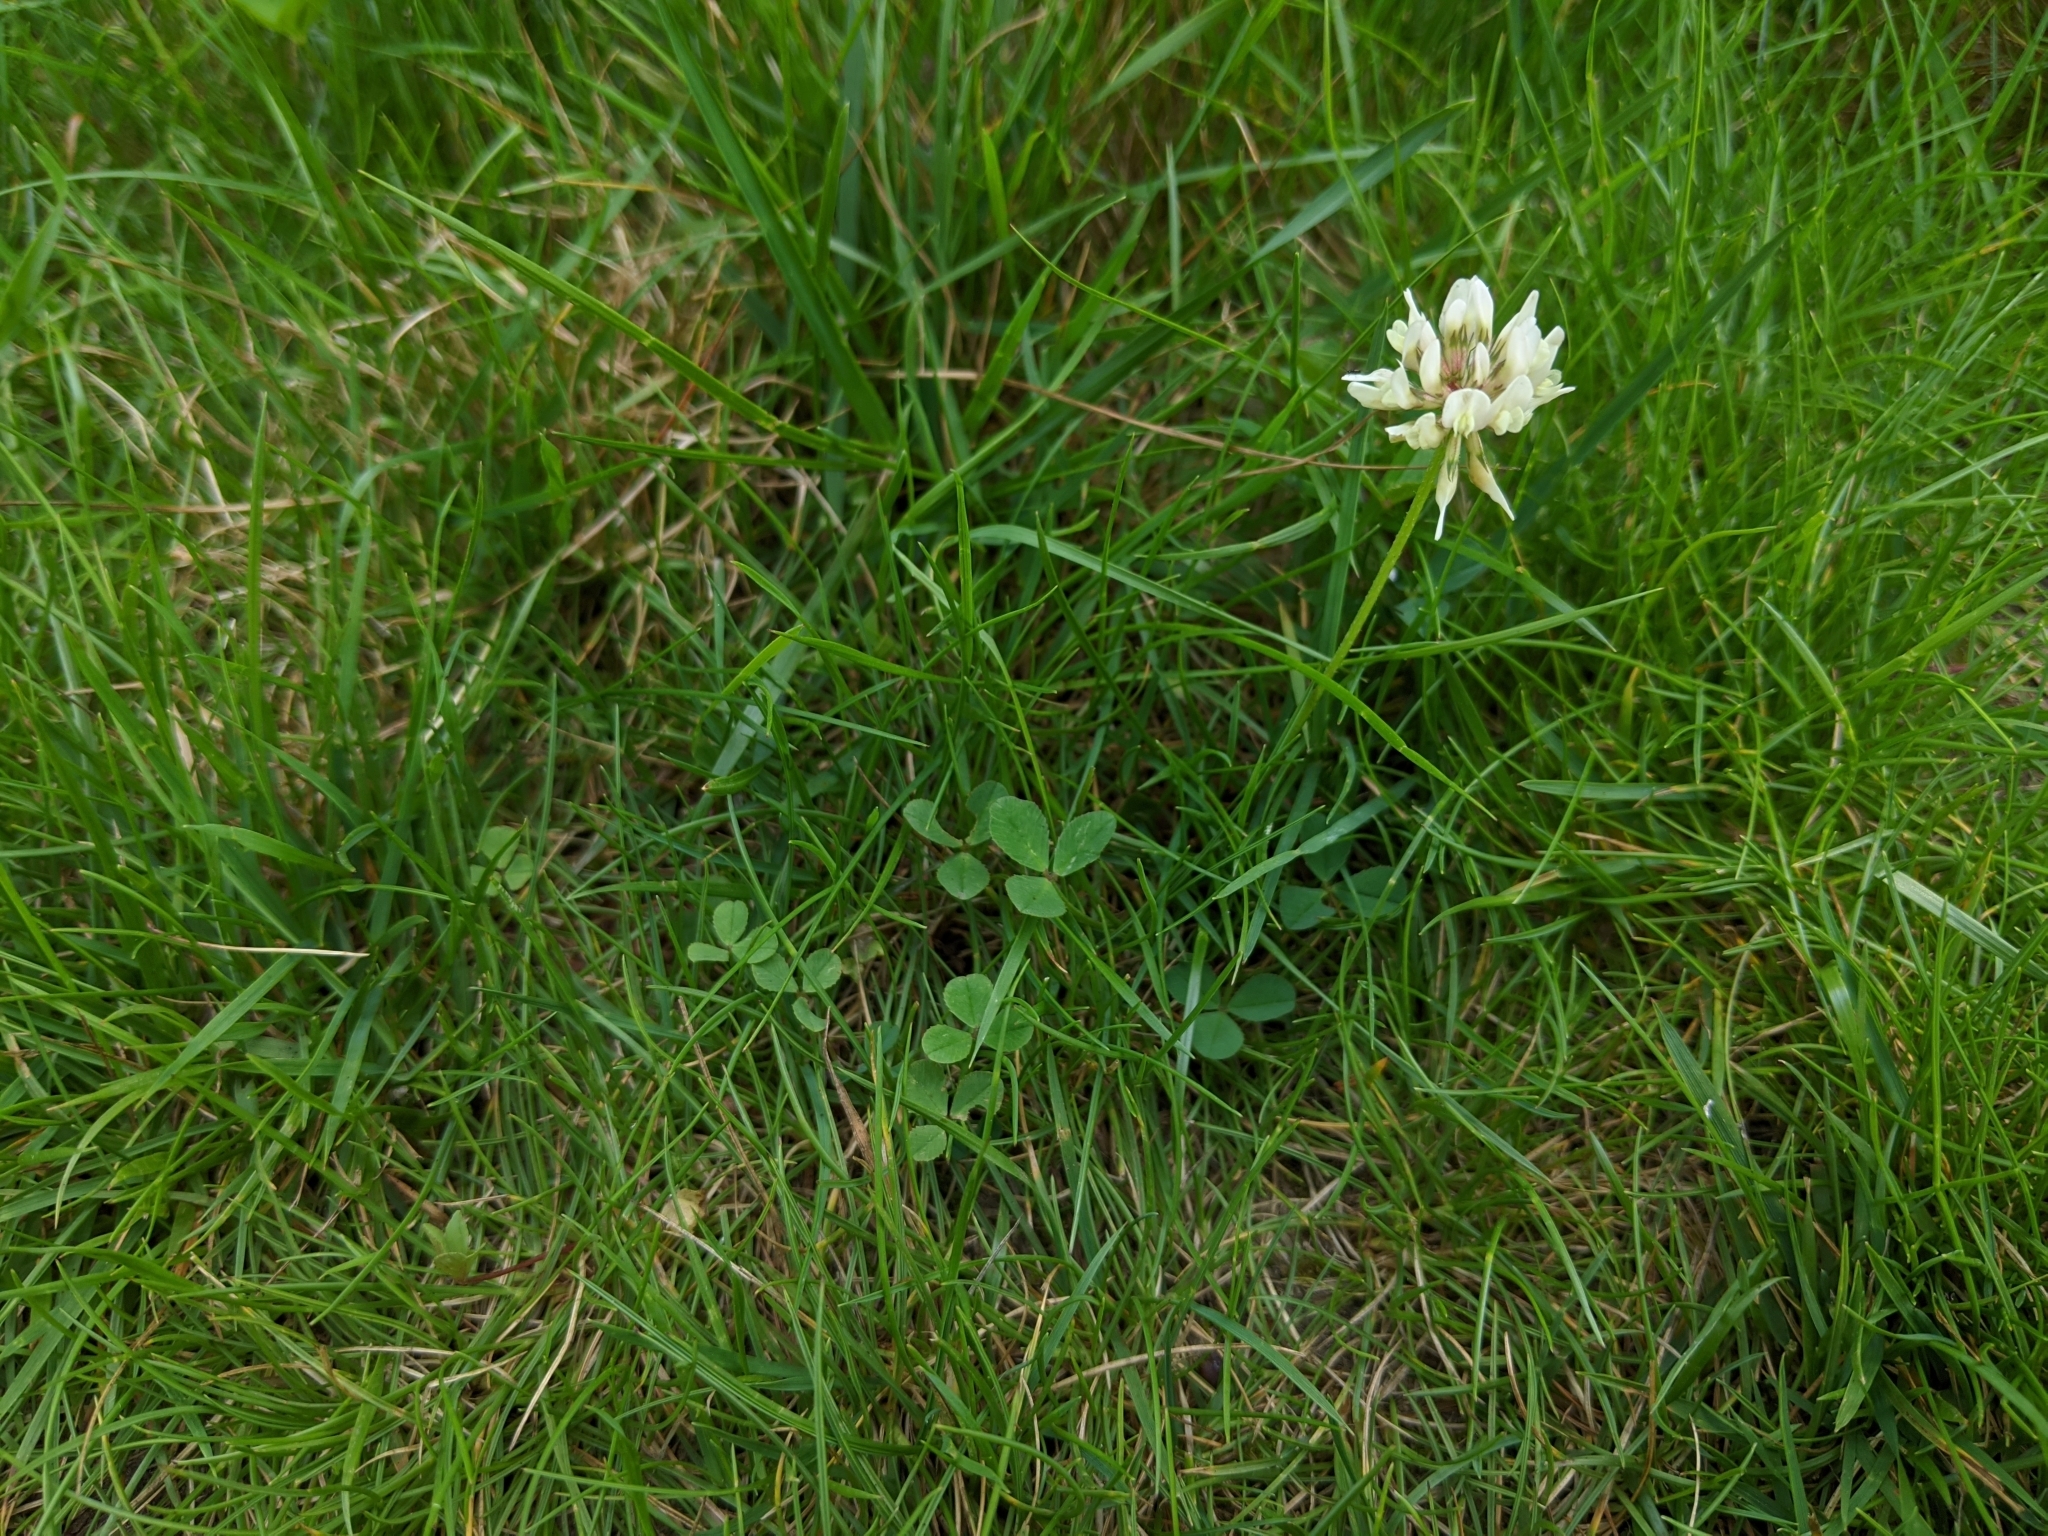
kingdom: Plantae
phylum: Tracheophyta
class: Magnoliopsida
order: Fabales
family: Fabaceae
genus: Trifolium
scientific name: Trifolium repens
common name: White clover
